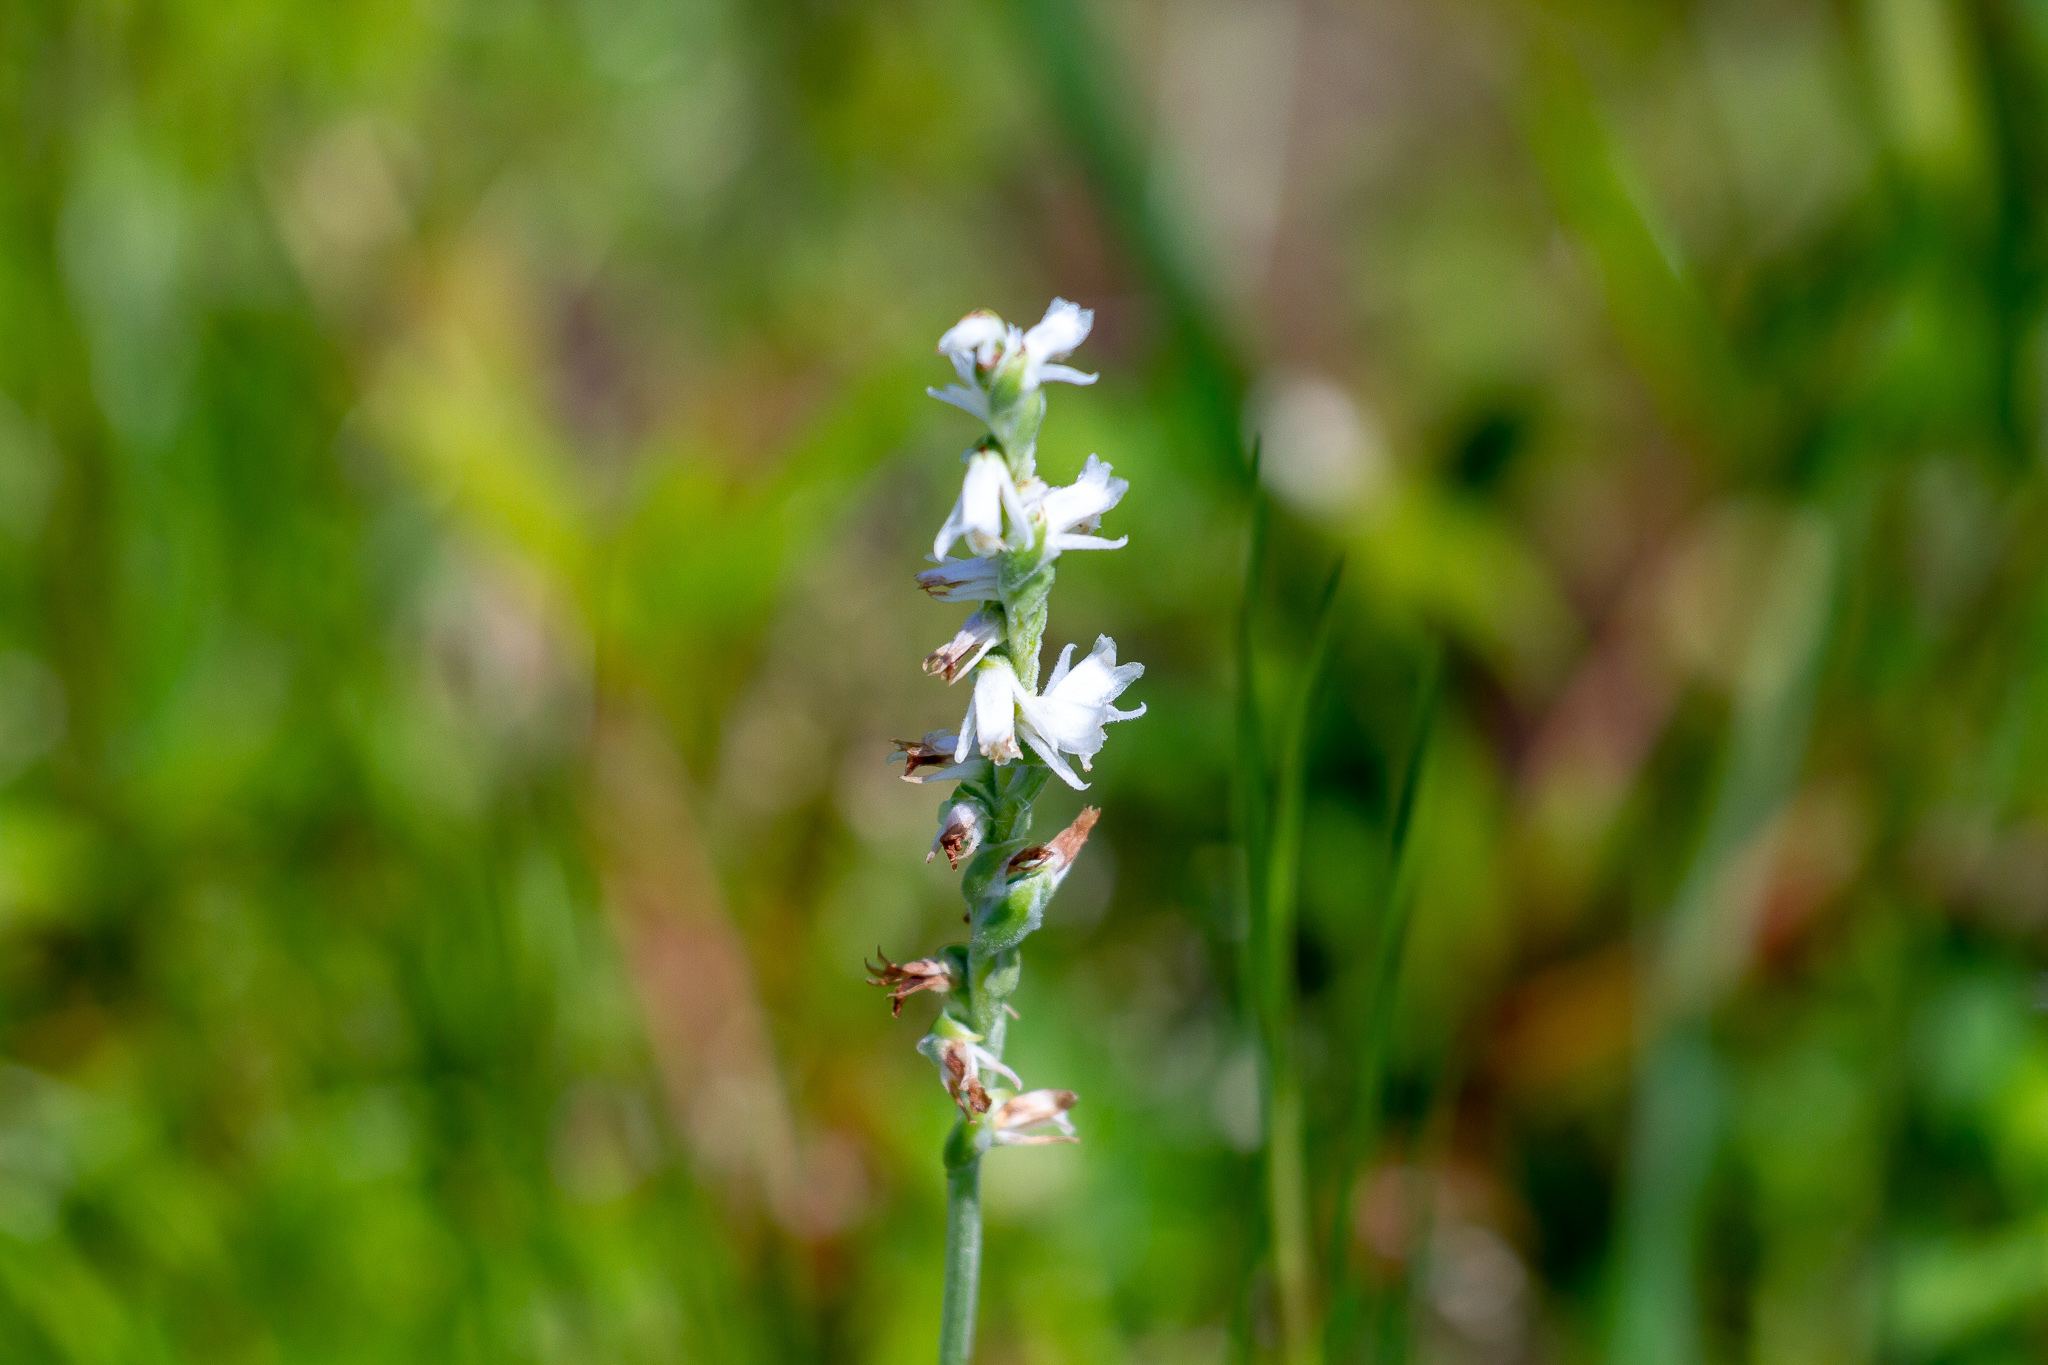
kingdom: Plantae
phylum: Tracheophyta
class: Liliopsida
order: Asparagales
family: Orchidaceae
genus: Spiranthes
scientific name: Spiranthes vernalis
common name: Spring ladies'-tresses
